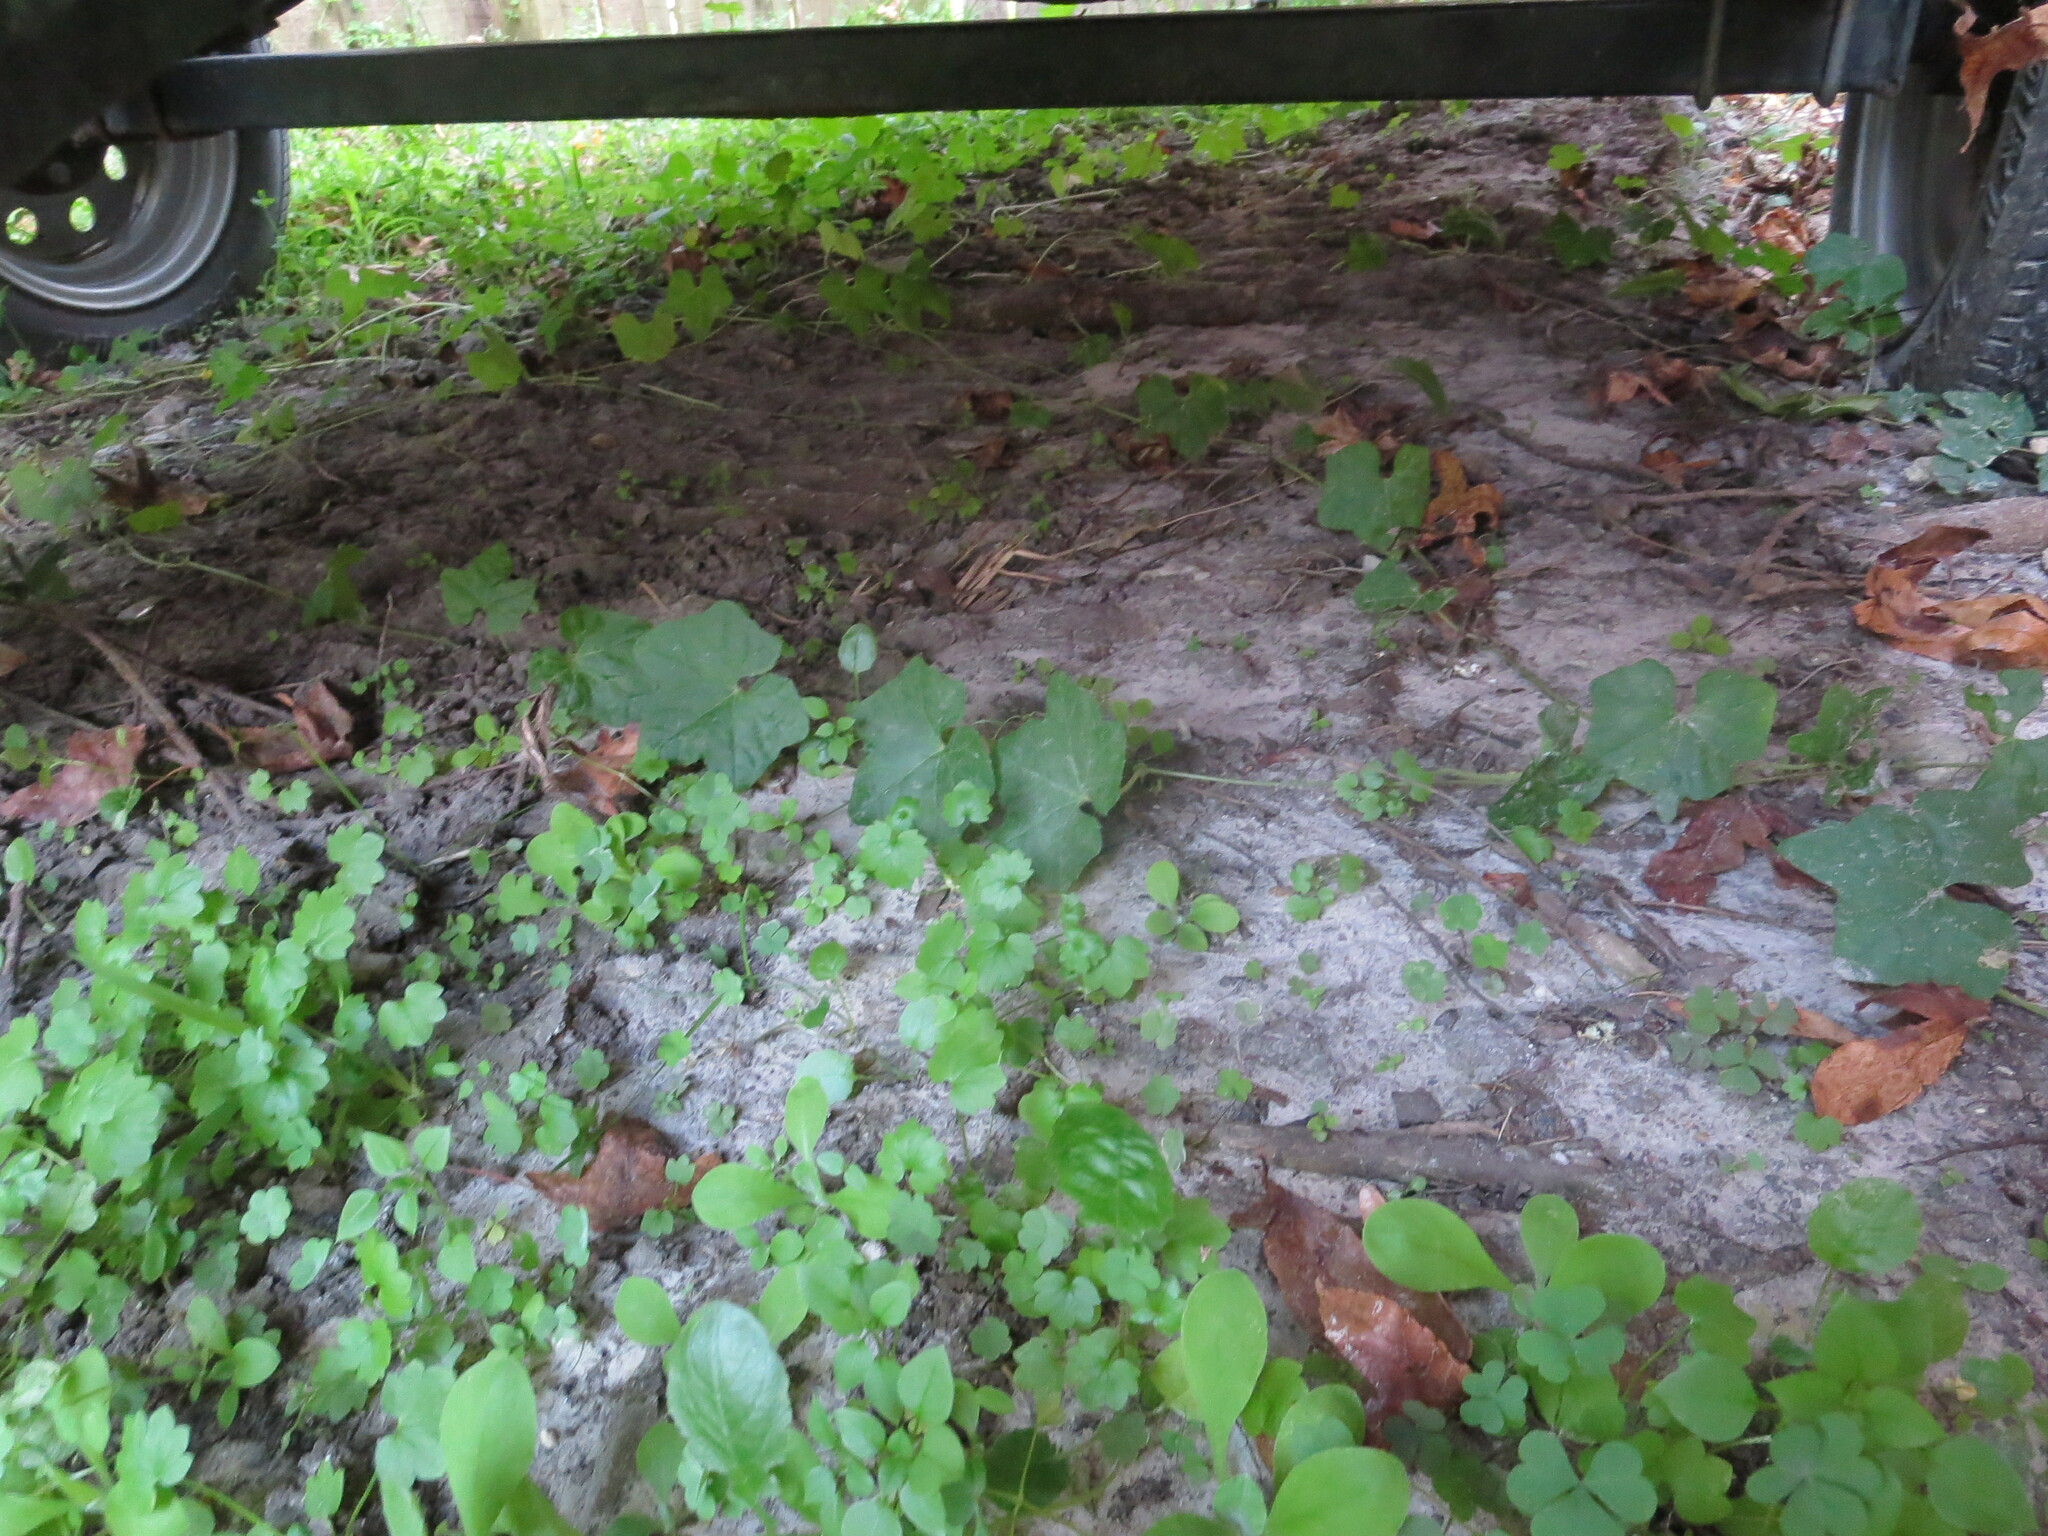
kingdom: Plantae
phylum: Tracheophyta
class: Magnoliopsida
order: Cucurbitales
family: Cucurbitaceae
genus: Melothria
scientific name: Melothria pendula
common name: Creeping-cucumber
